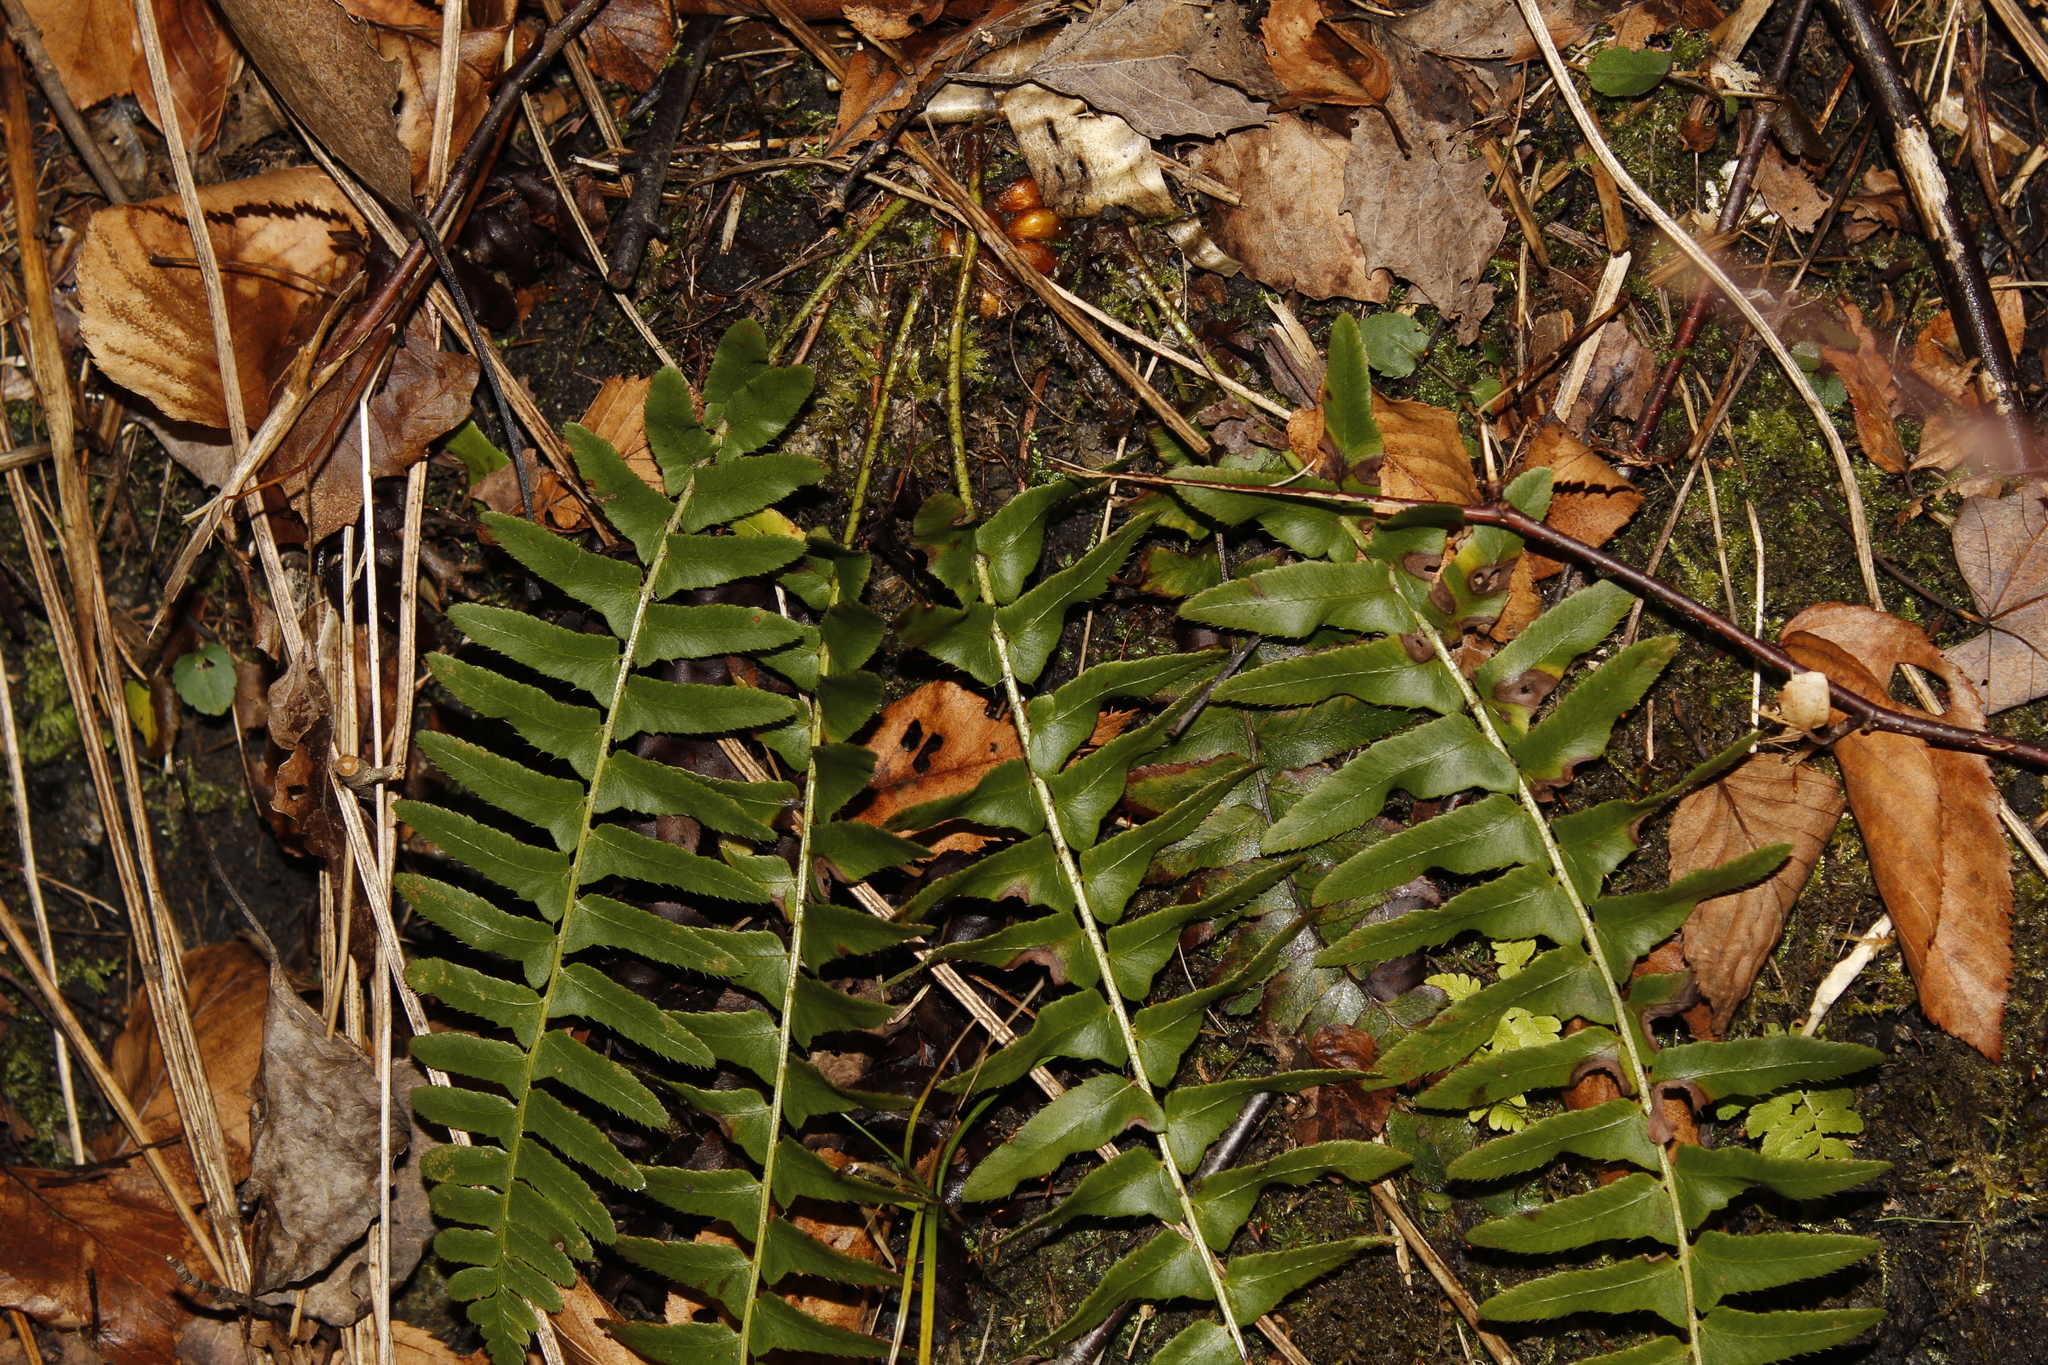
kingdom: Plantae
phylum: Tracheophyta
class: Polypodiopsida
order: Polypodiales
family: Dryopteridaceae
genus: Polystichum
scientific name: Polystichum acrostichoides
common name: Christmas fern
